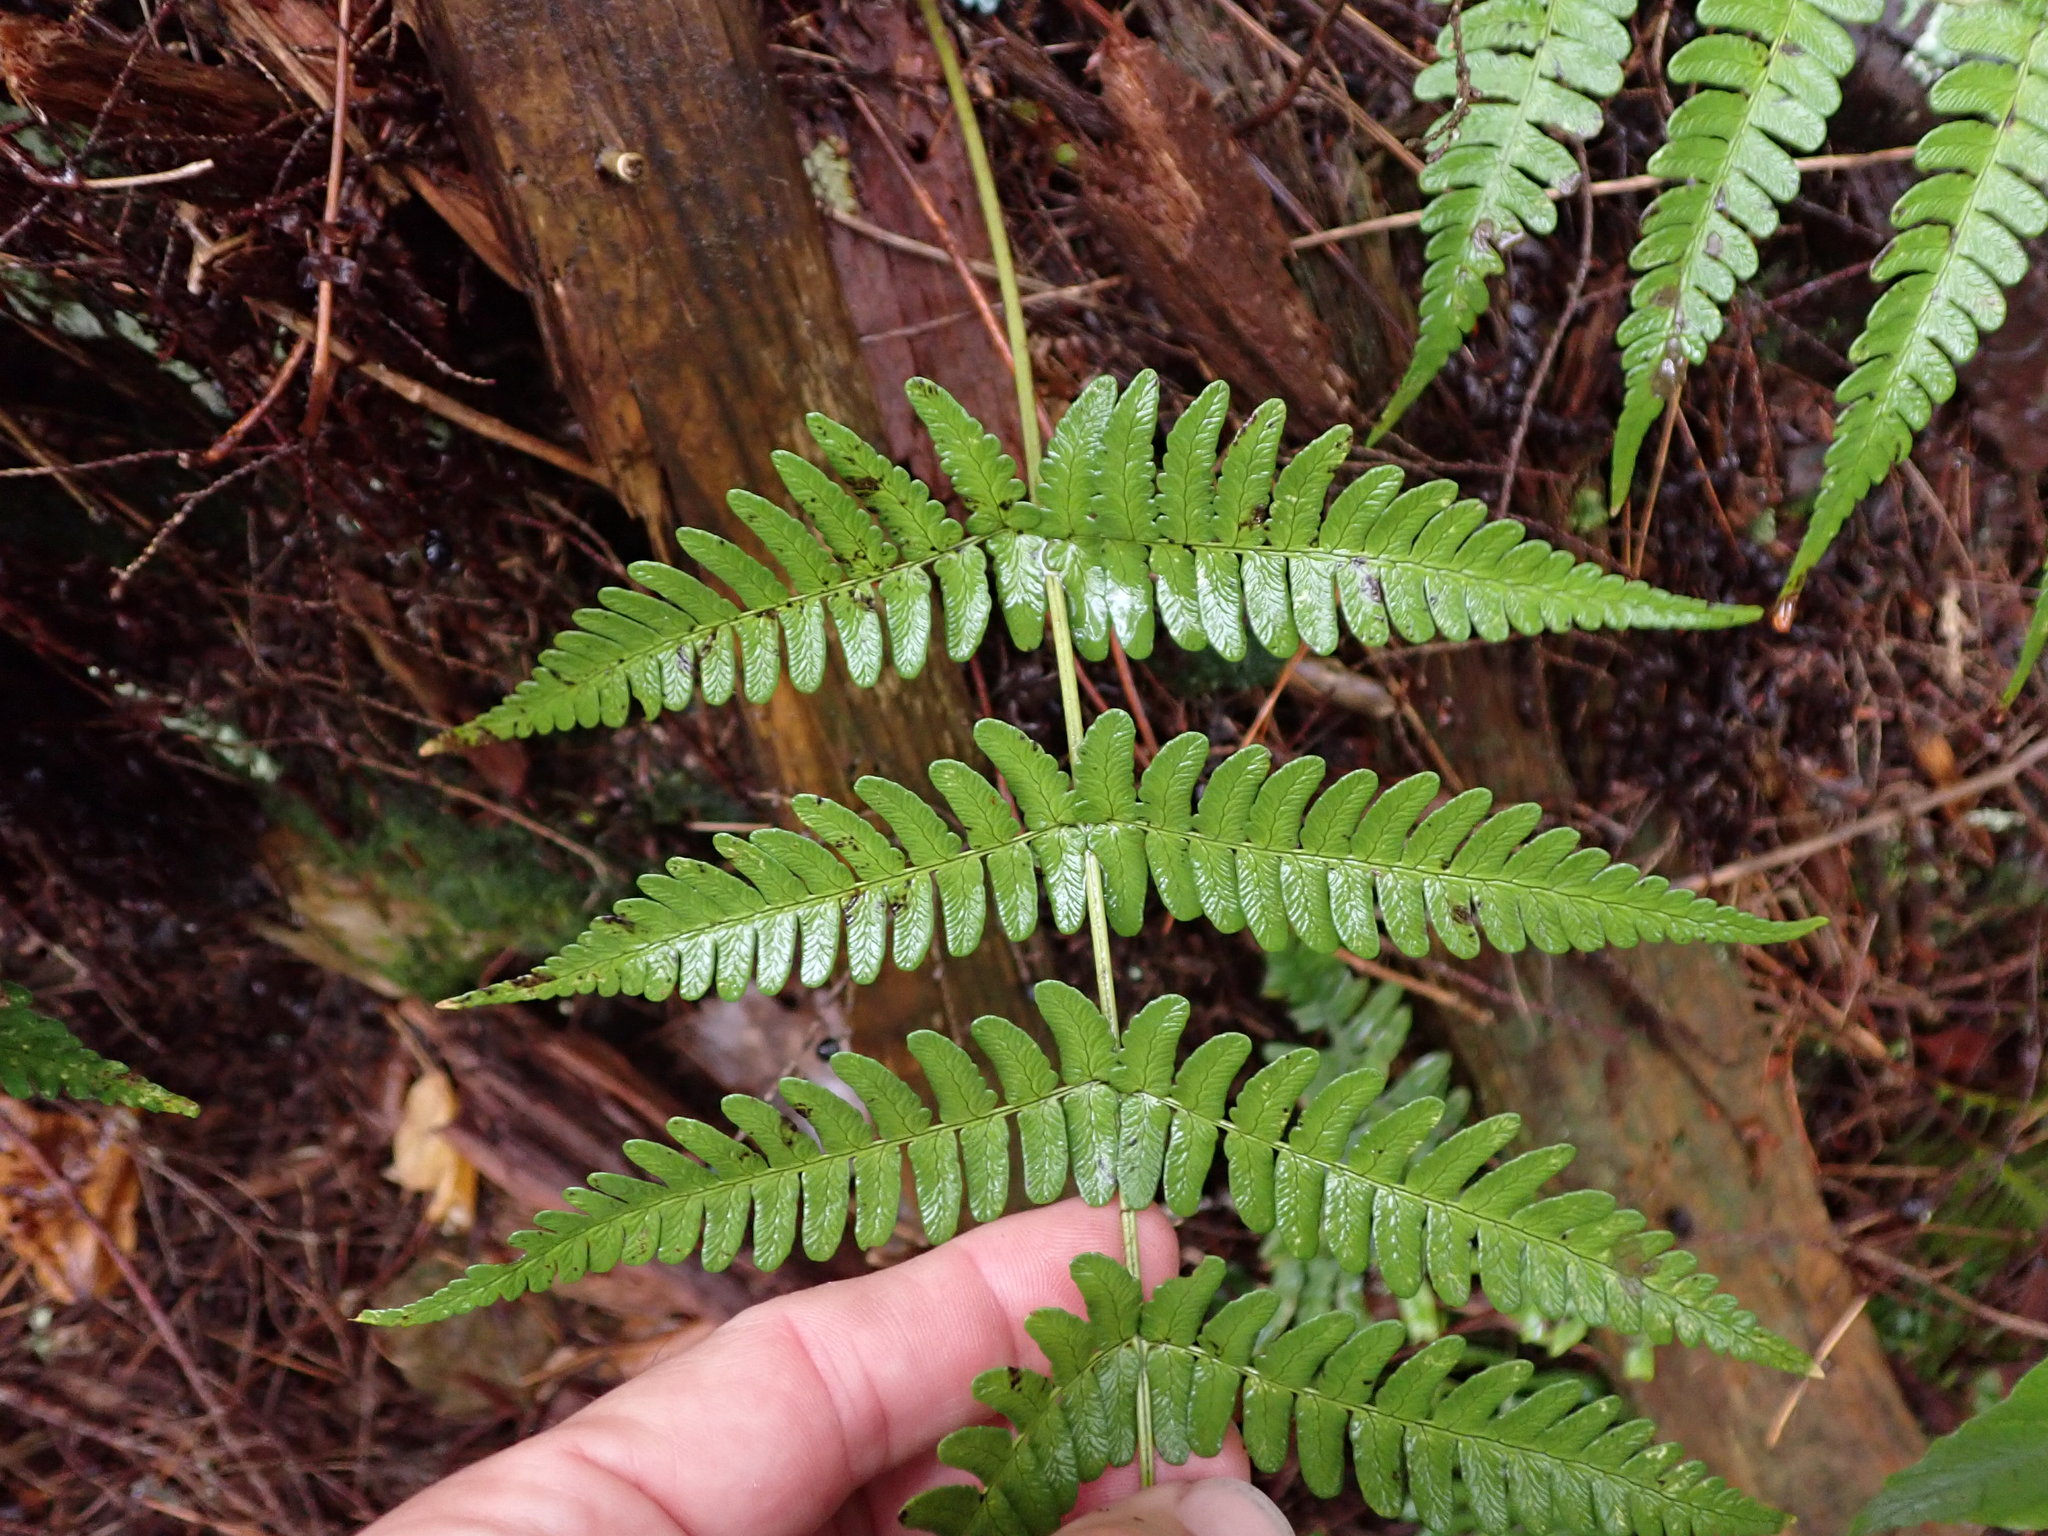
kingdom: Plantae
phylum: Tracheophyta
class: Polypodiopsida
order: Polypodiales
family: Dryopteridaceae
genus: Dryopteris
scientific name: Dryopteris marginalis
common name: Marginal wood fern
